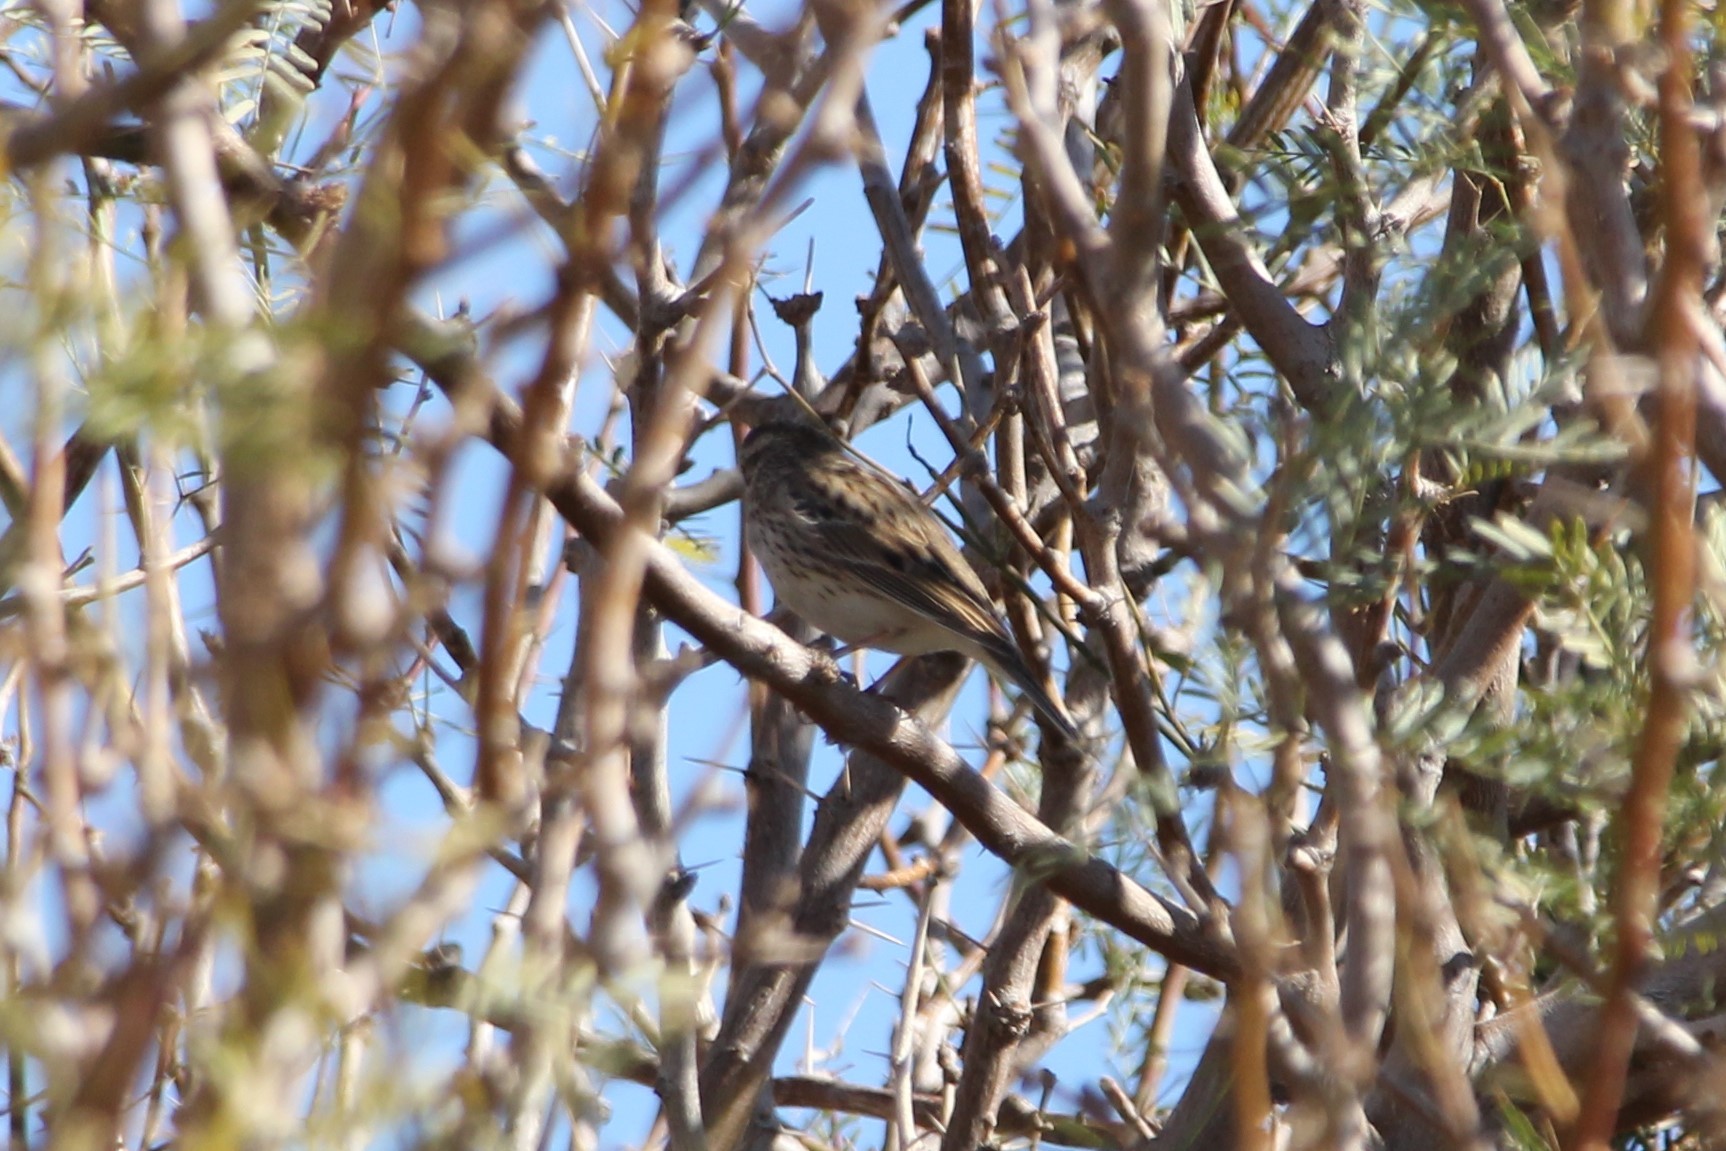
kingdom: Animalia
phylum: Chordata
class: Aves
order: Passeriformes
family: Passerellidae
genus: Passerculus
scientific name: Passerculus sandwichensis
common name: Savannah sparrow
